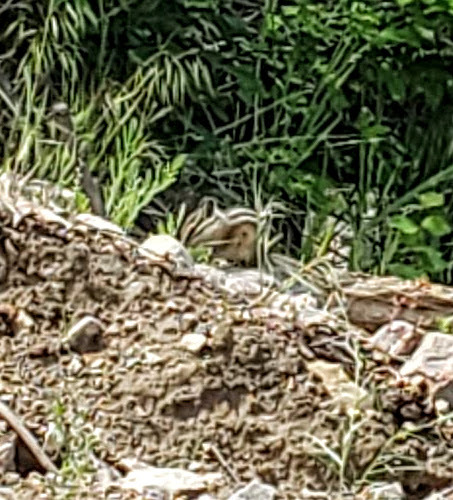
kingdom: Animalia
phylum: Chordata
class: Mammalia
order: Rodentia
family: Sciuridae
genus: Tamias
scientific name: Tamias amoenus
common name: Yellow-pine chipmunk
